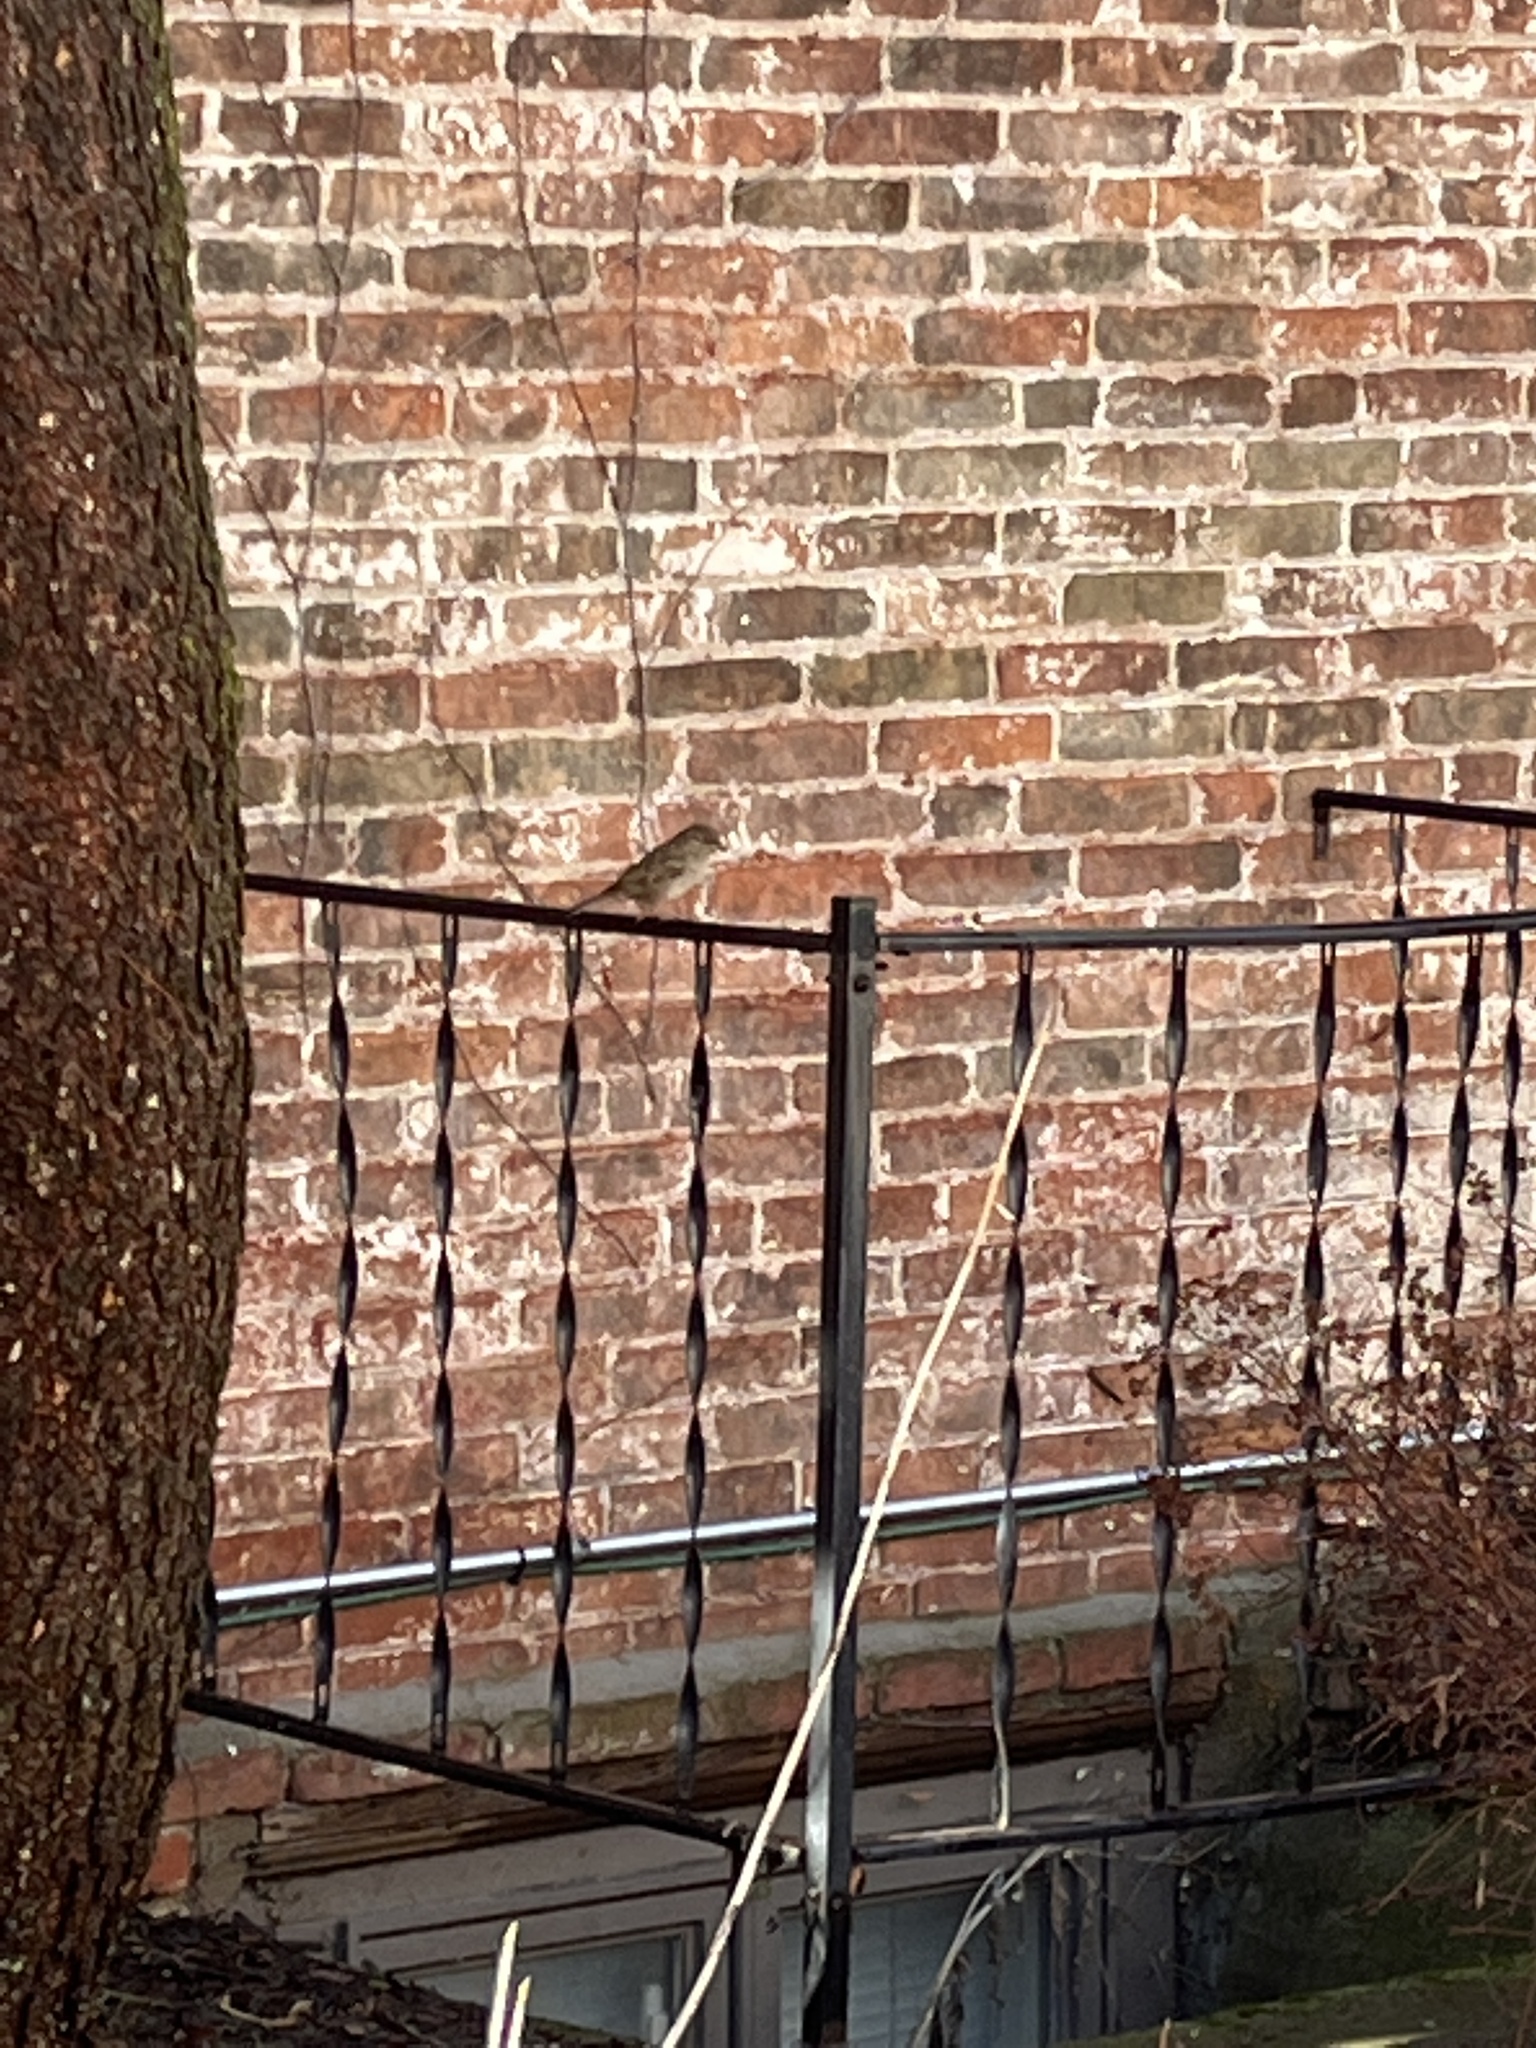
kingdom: Animalia
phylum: Chordata
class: Aves
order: Passeriformes
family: Passeridae
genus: Passer
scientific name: Passer domesticus
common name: House sparrow
